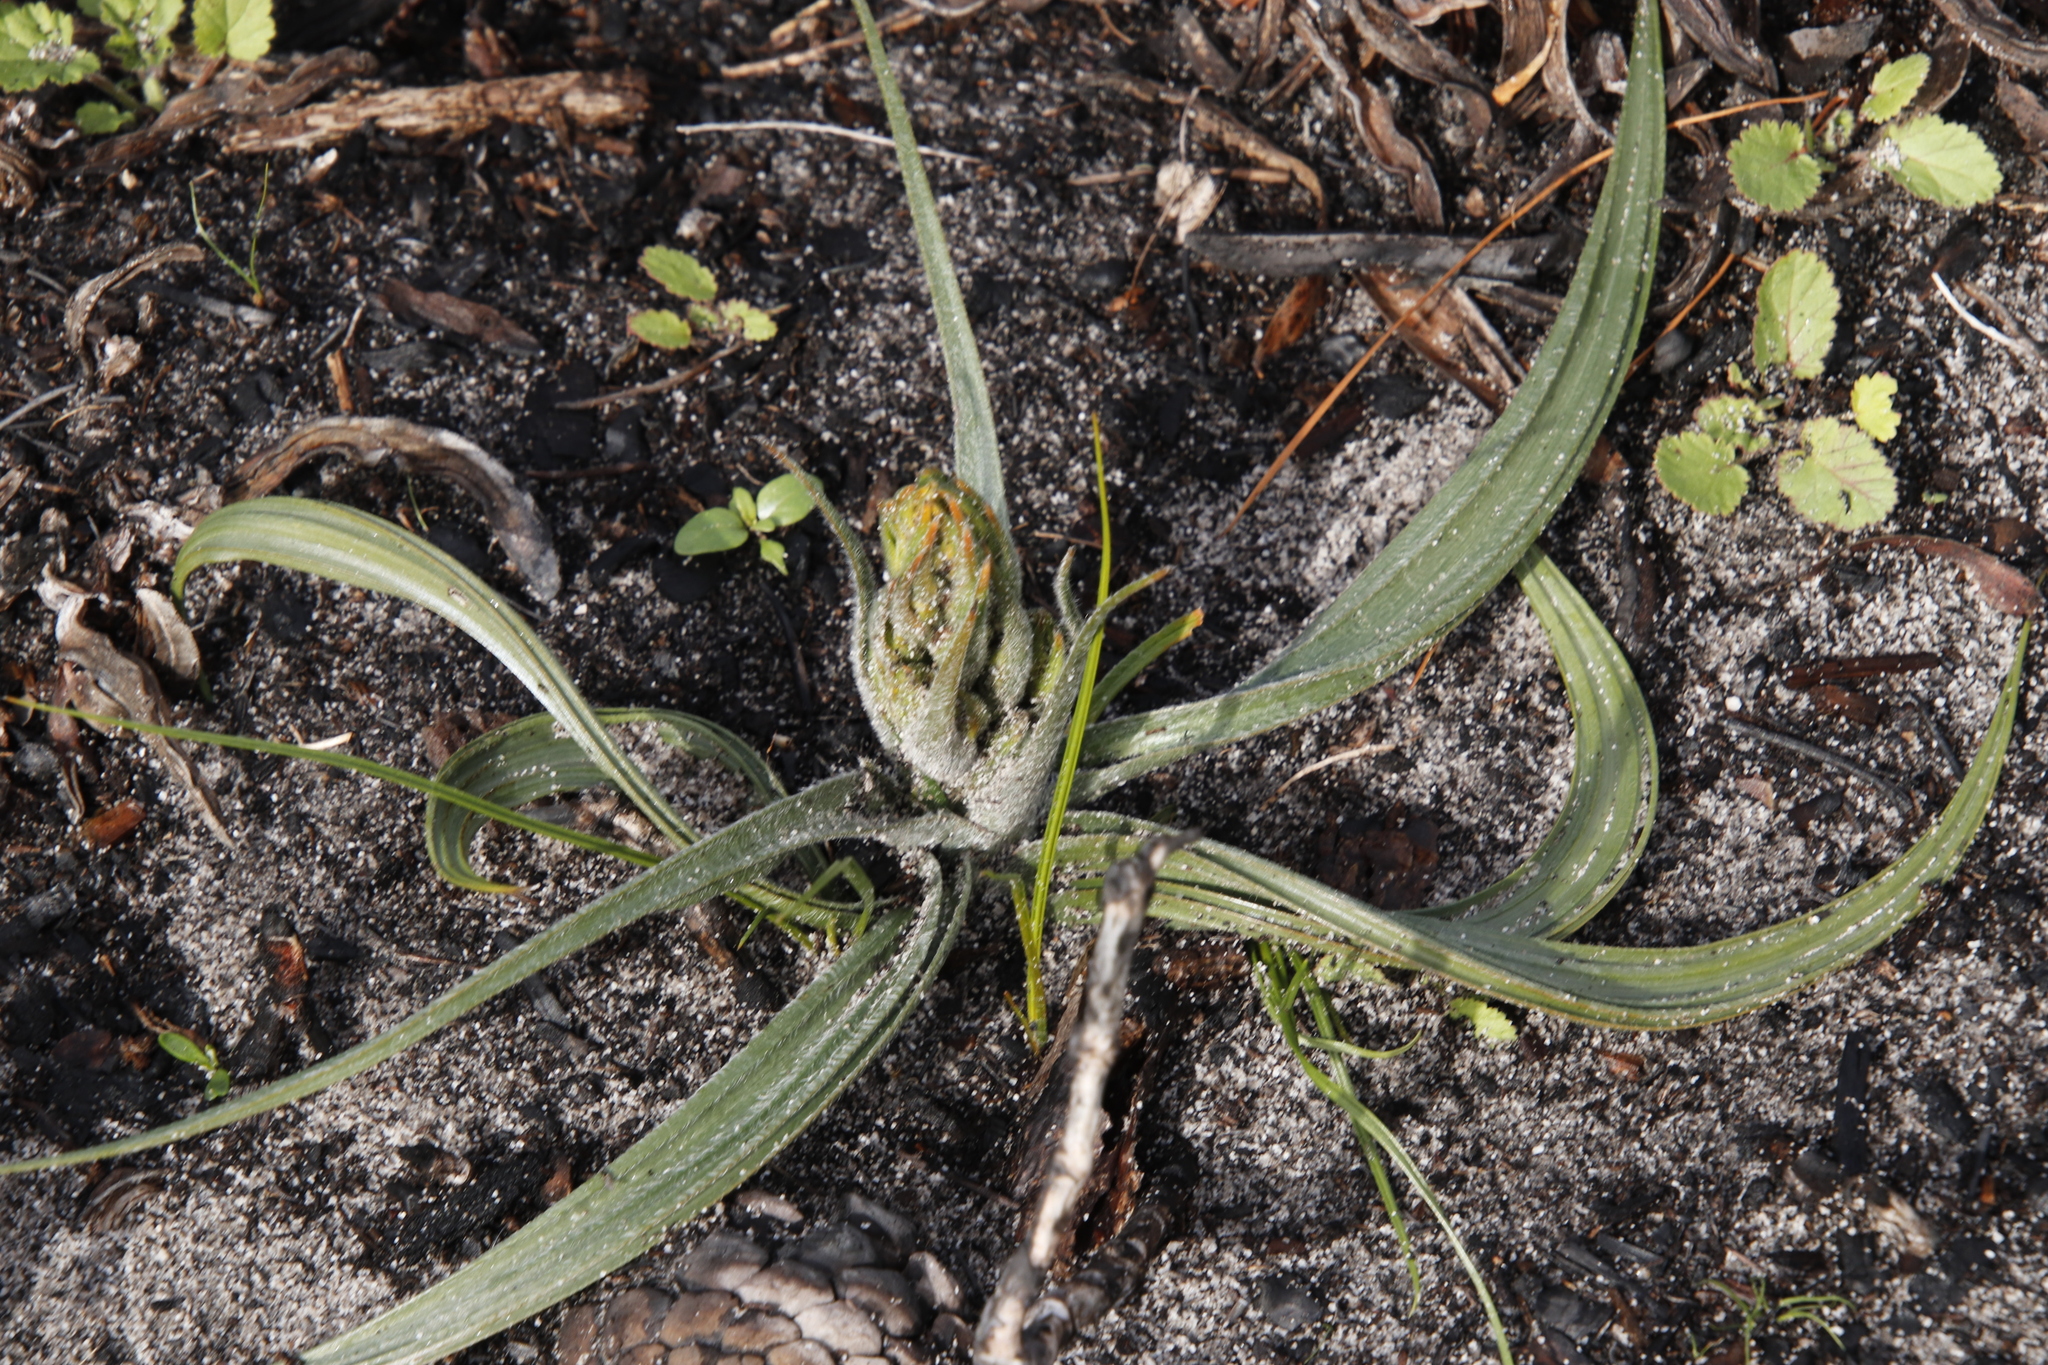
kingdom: Plantae
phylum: Tracheophyta
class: Liliopsida
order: Commelinales
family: Haemodoraceae
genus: Wachendorfia
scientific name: Wachendorfia paniculata
